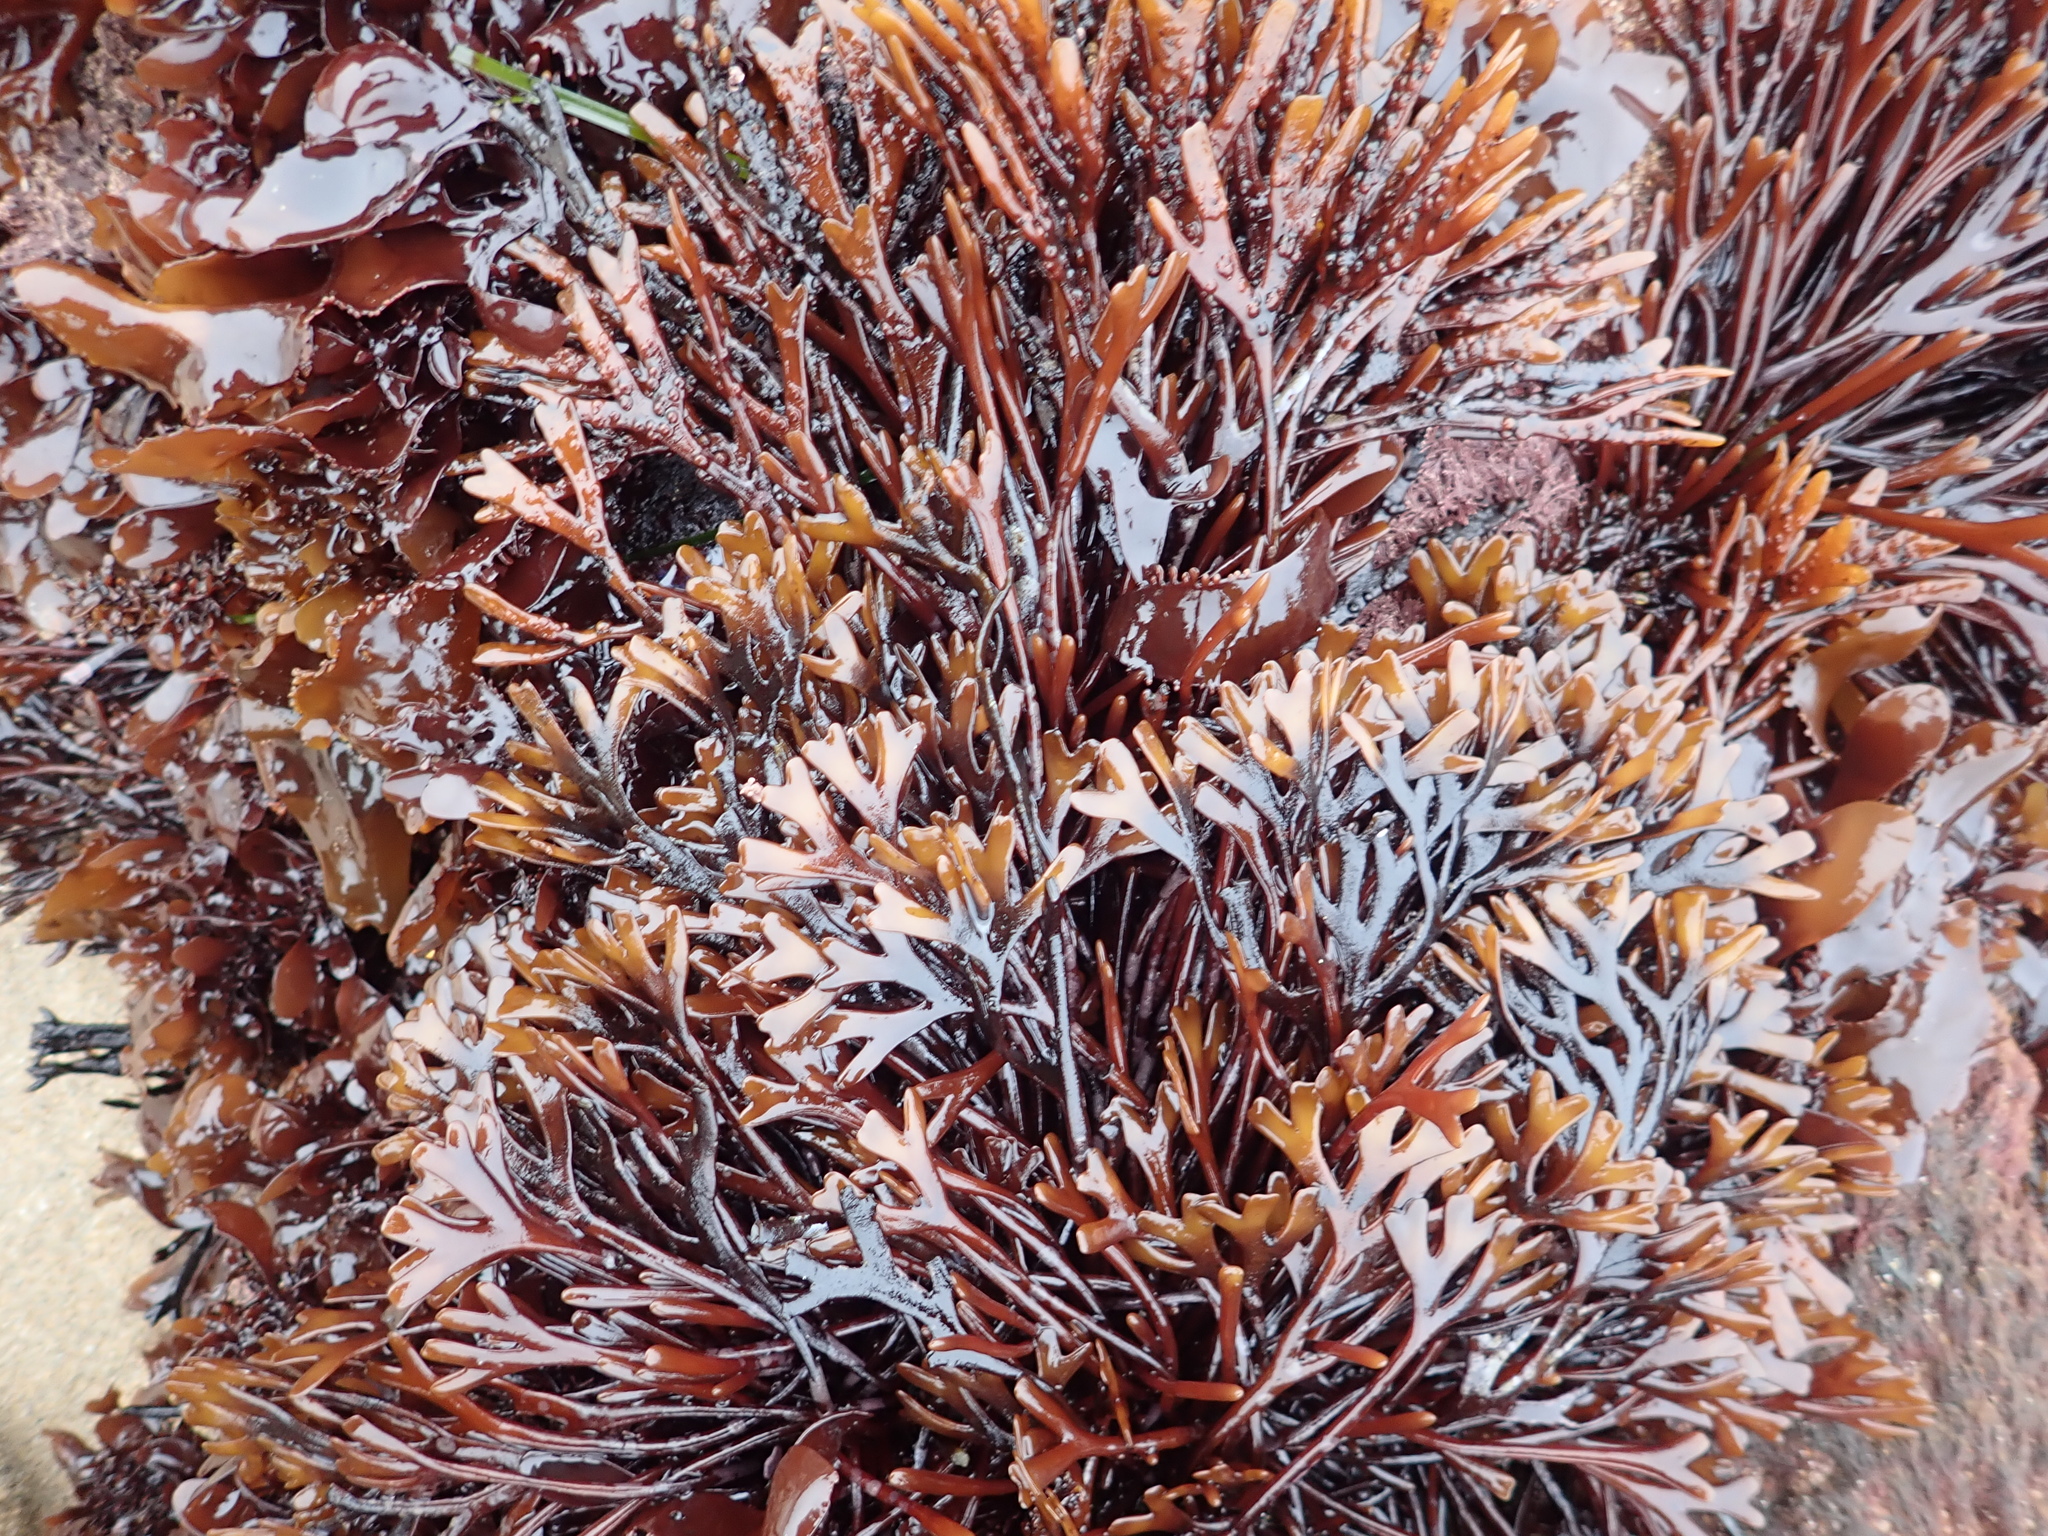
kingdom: Plantae
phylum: Rhodophyta
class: Florideophyceae
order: Gigartinales
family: Phyllophoraceae
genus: Ahnfeltiopsis
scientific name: Ahnfeltiopsis linearis
